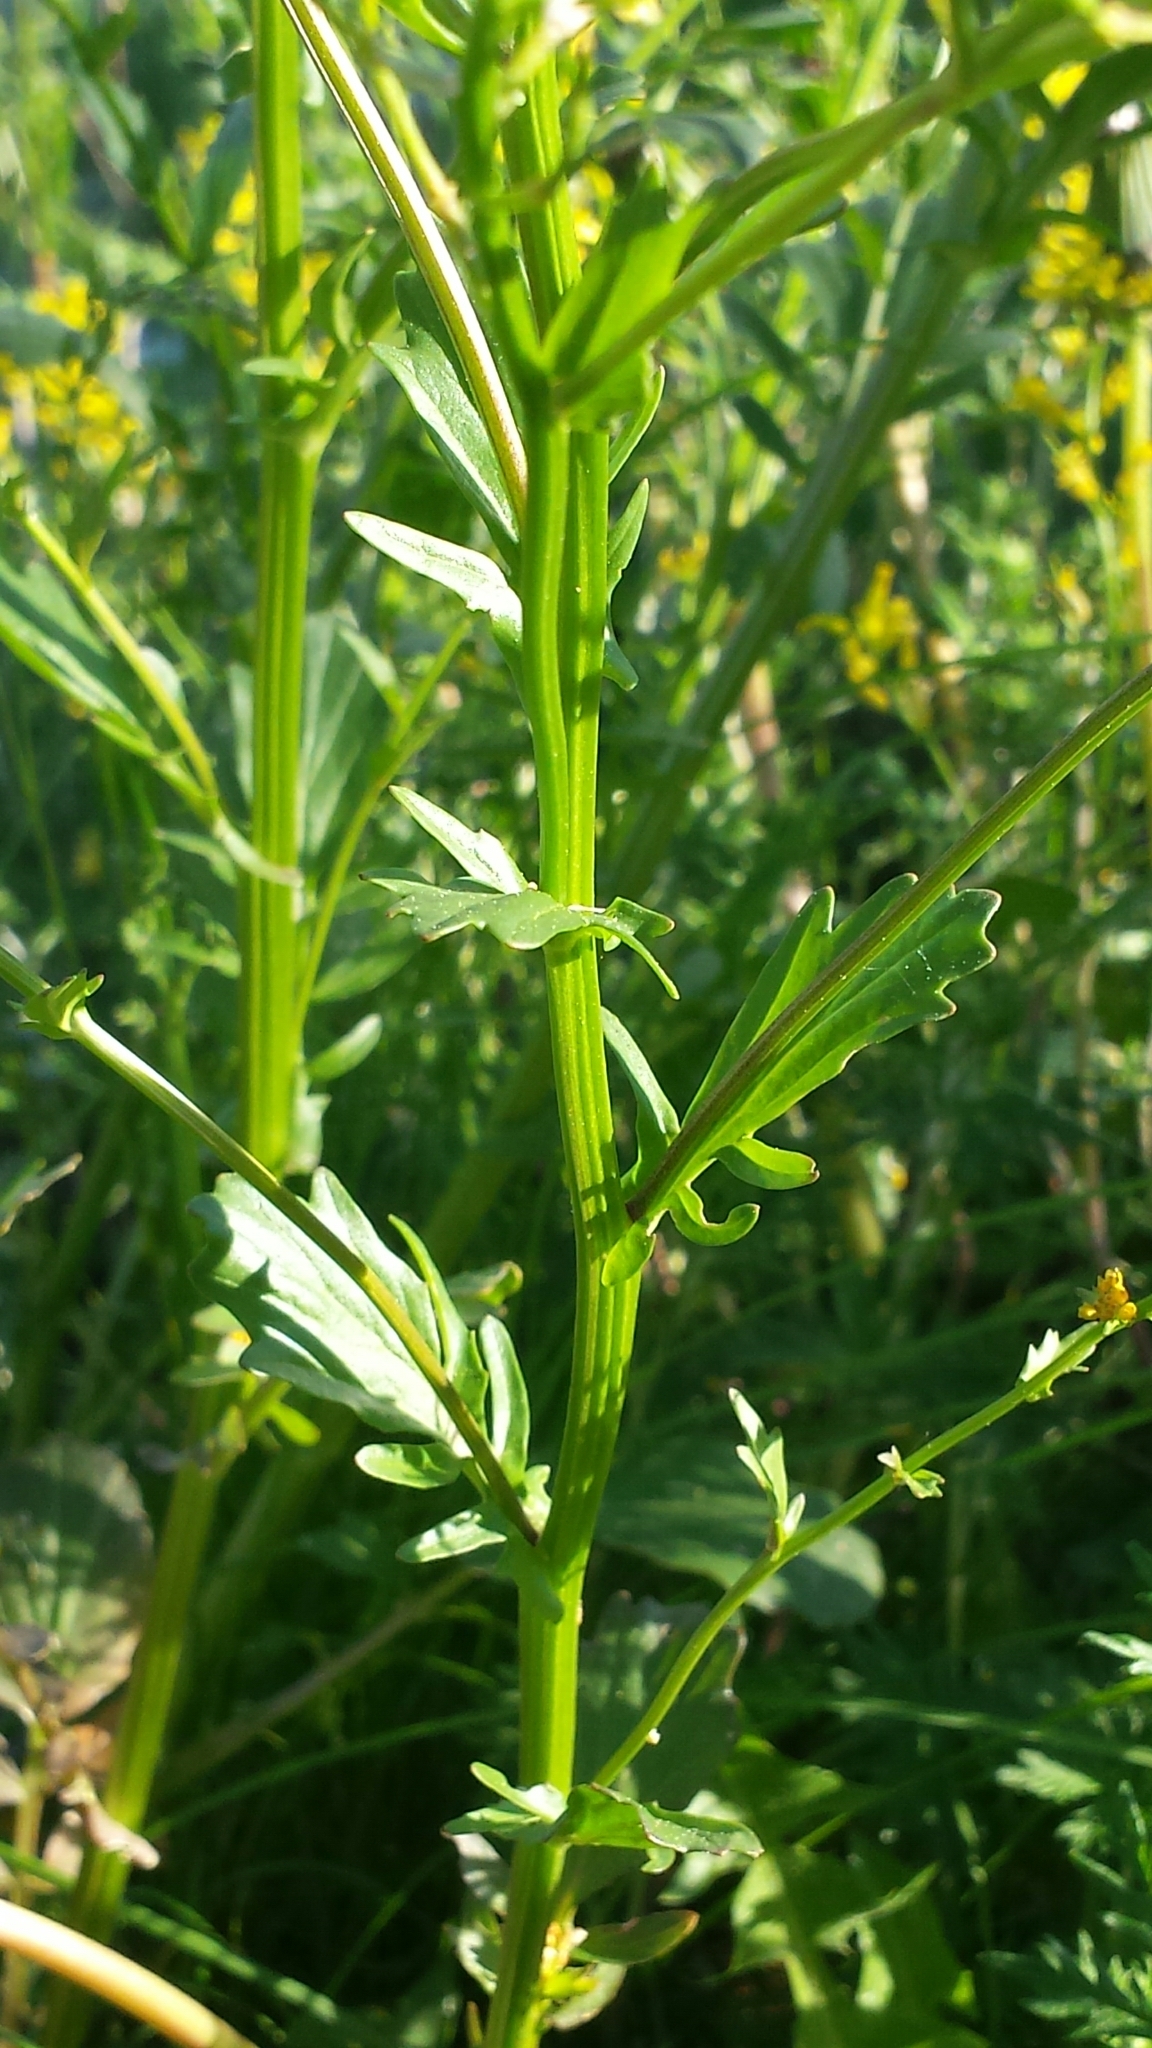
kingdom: Plantae
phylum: Tracheophyta
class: Magnoliopsida
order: Brassicales
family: Brassicaceae
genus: Barbarea
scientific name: Barbarea vulgaris
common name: Cressy-greens
